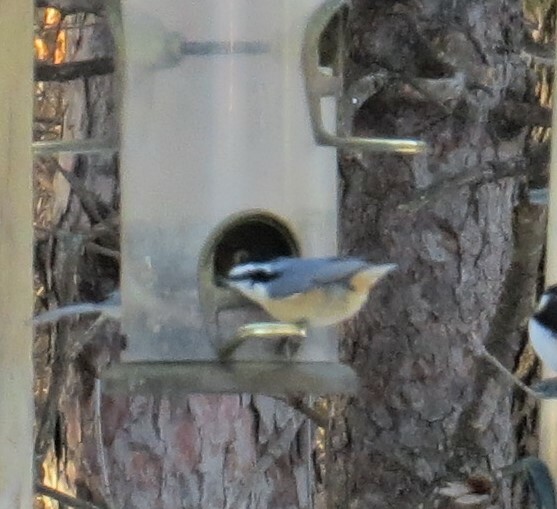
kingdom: Animalia
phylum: Chordata
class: Aves
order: Passeriformes
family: Sittidae
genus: Sitta
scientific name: Sitta canadensis
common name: Red-breasted nuthatch
